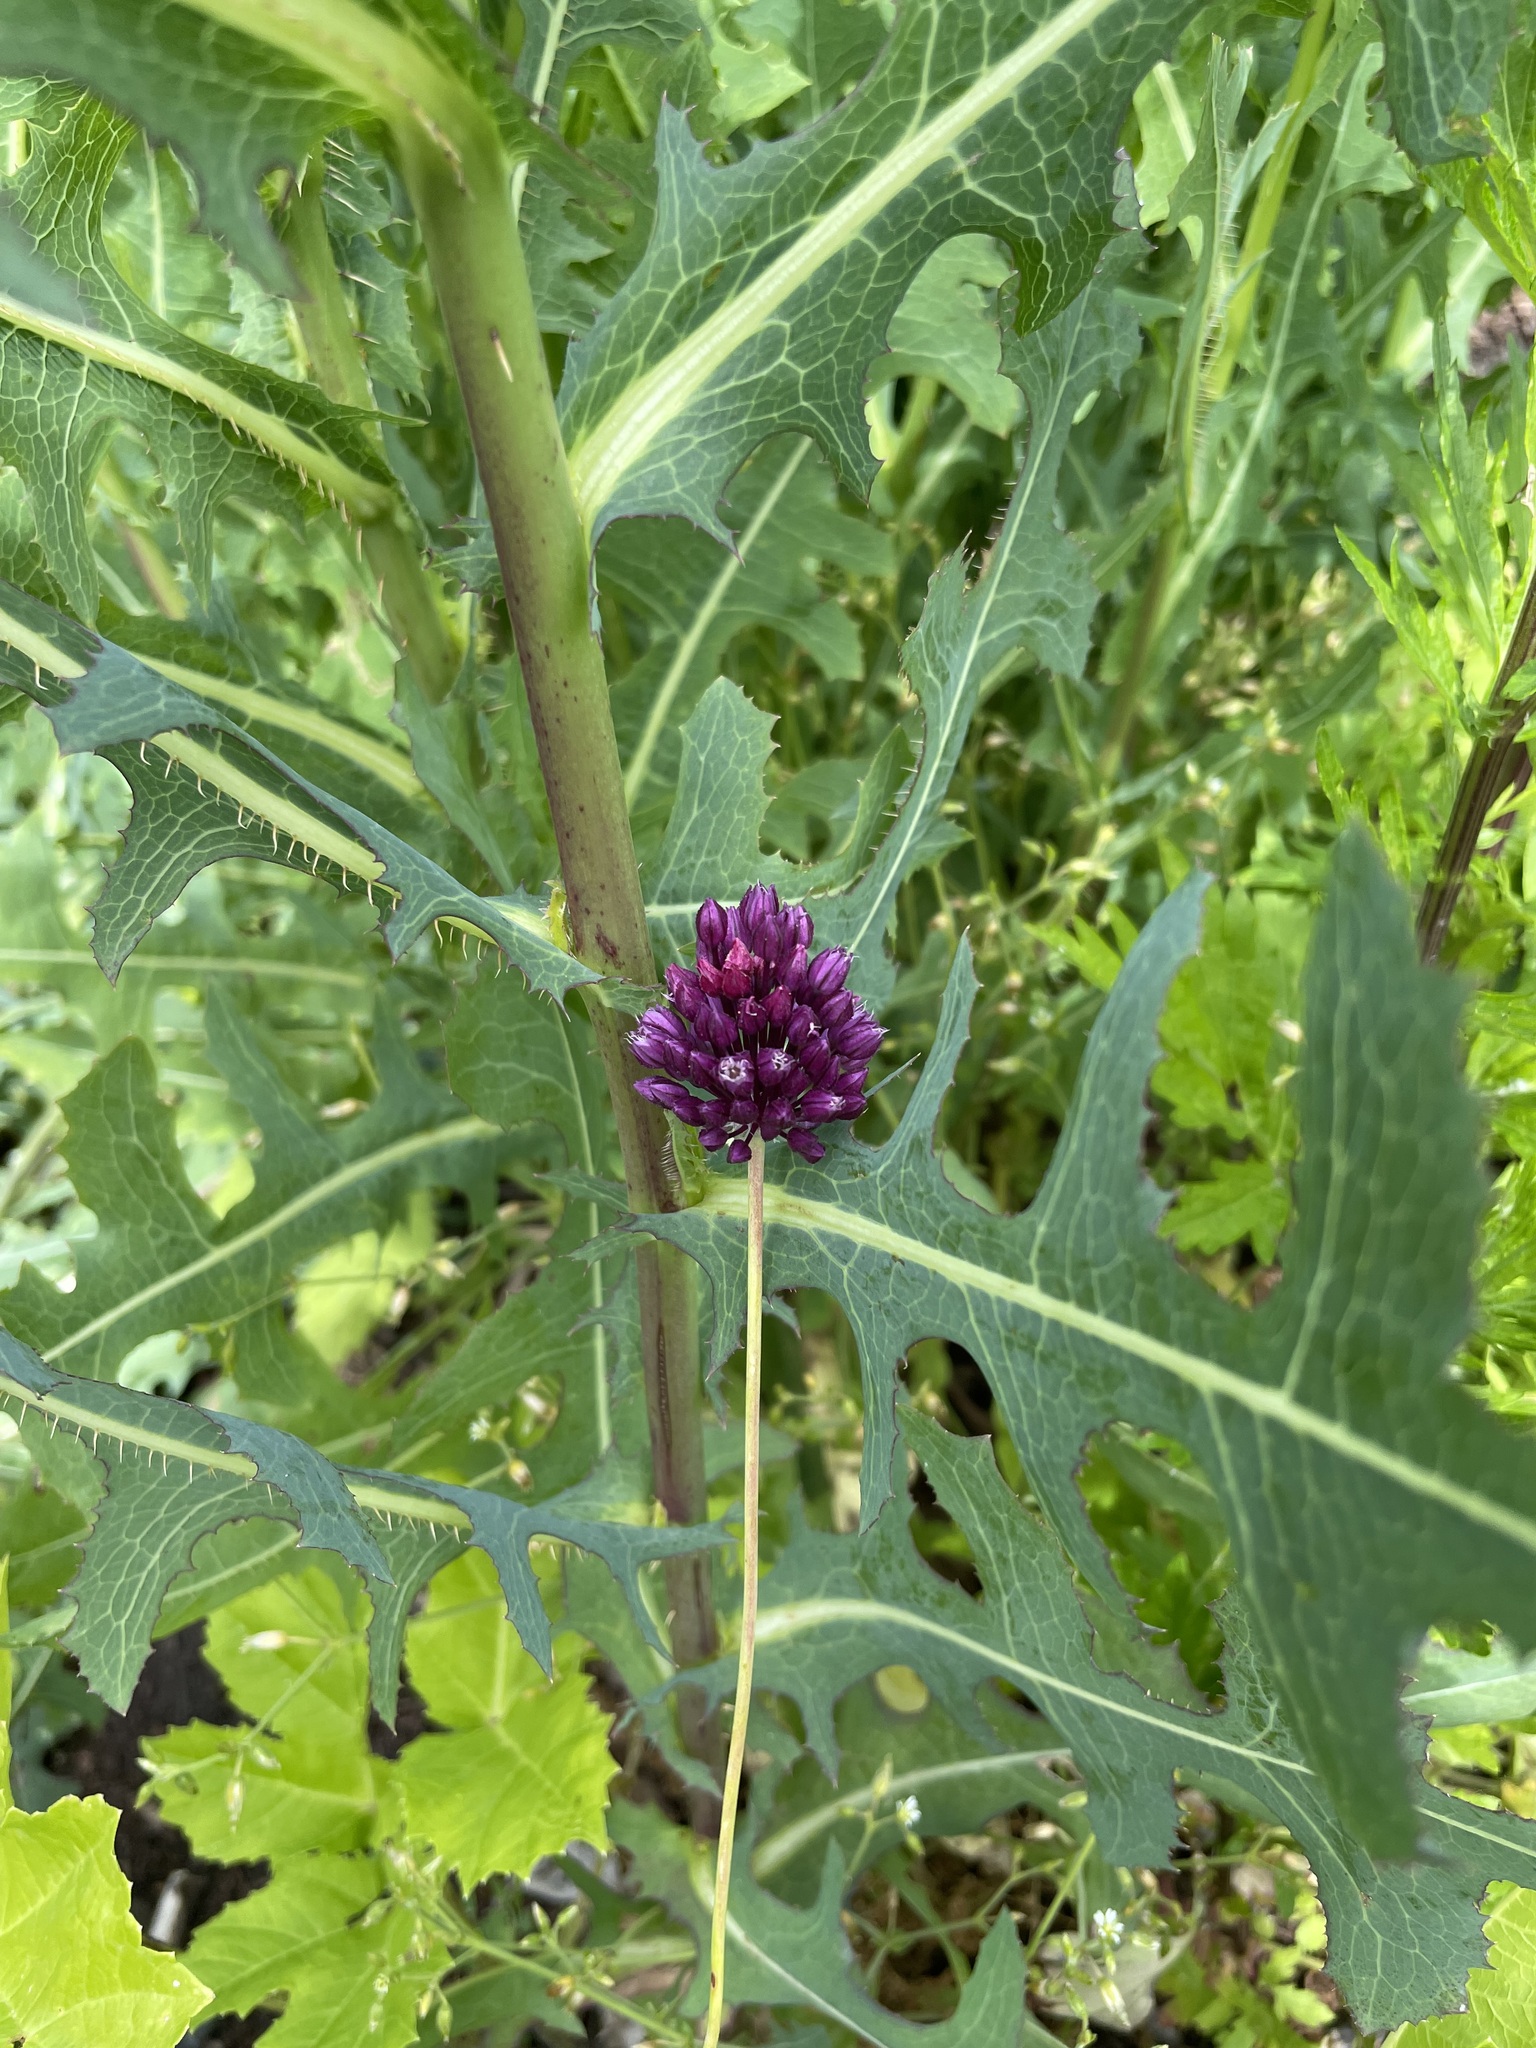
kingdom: Plantae
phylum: Tracheophyta
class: Liliopsida
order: Asparagales
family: Amaryllidaceae
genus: Allium
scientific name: Allium rotundum
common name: Sand leek
